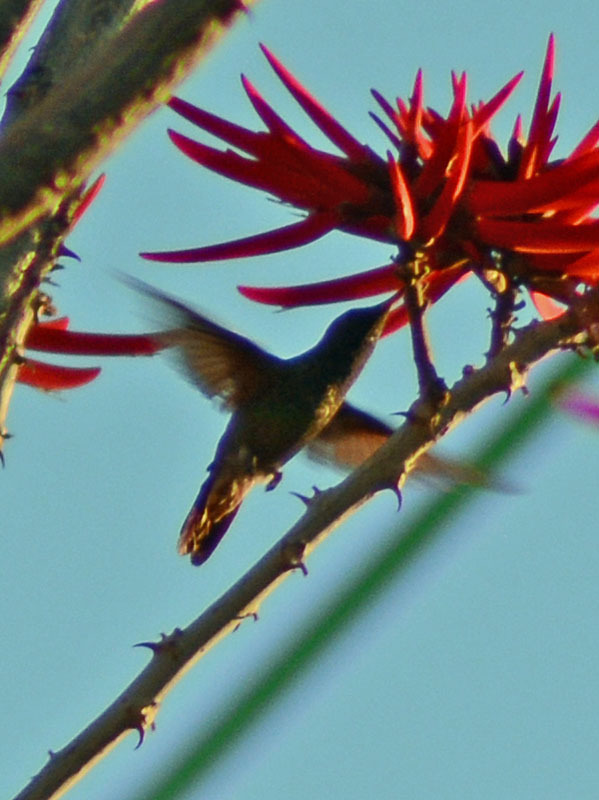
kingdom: Animalia
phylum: Chordata
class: Aves
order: Apodiformes
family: Trochilidae
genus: Saucerottia
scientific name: Saucerottia beryllina
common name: Berylline hummingbird
